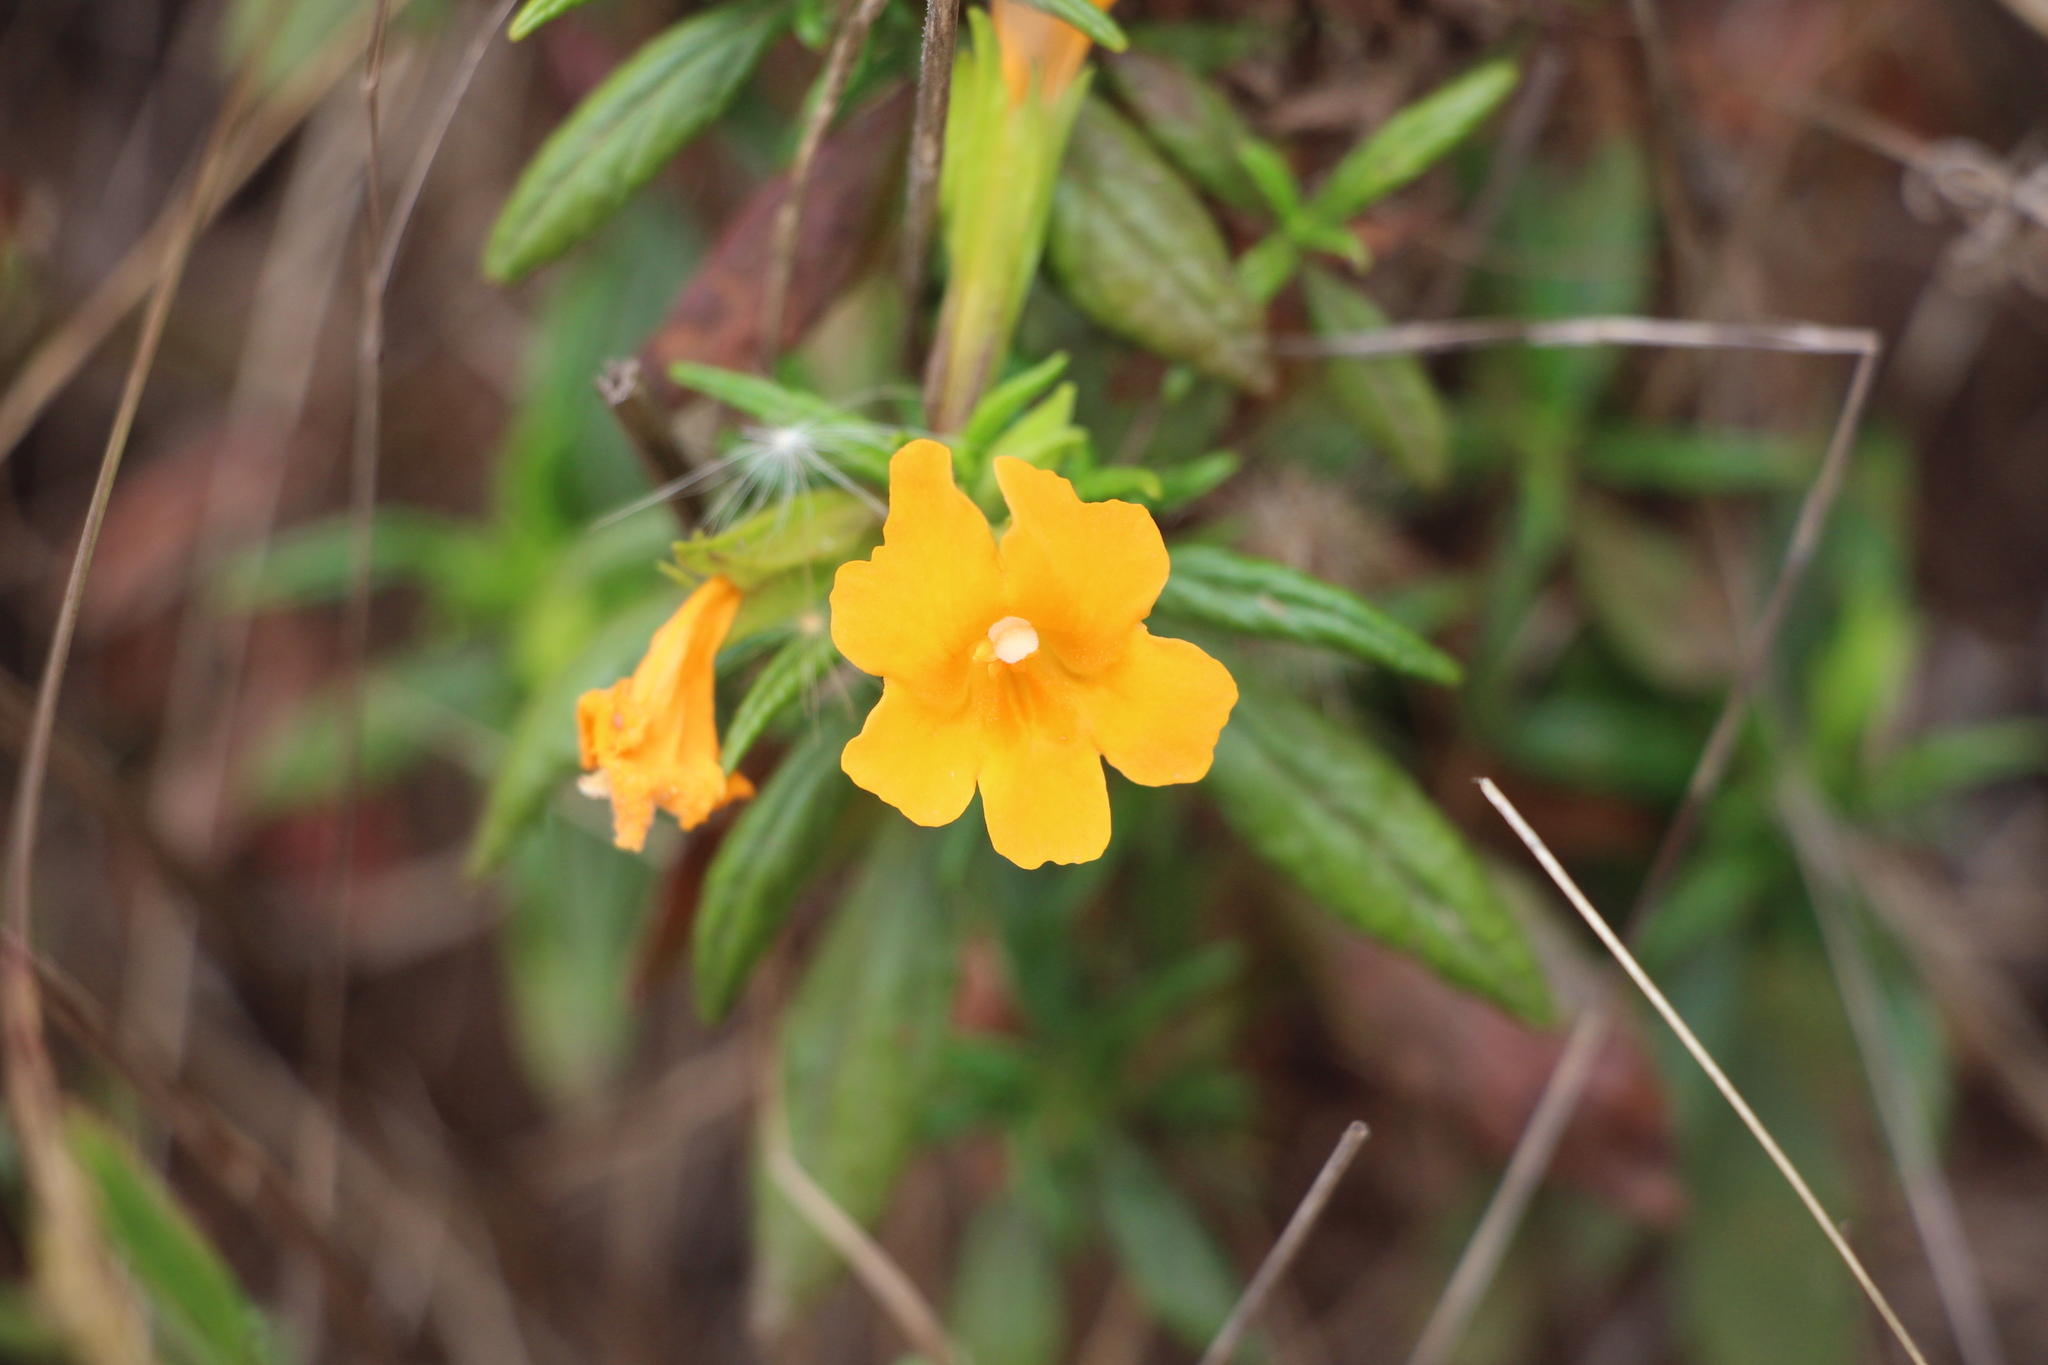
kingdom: Plantae
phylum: Tracheophyta
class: Magnoliopsida
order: Lamiales
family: Phrymaceae
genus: Diplacus
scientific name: Diplacus aurantiacus
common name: Bush monkey-flower
